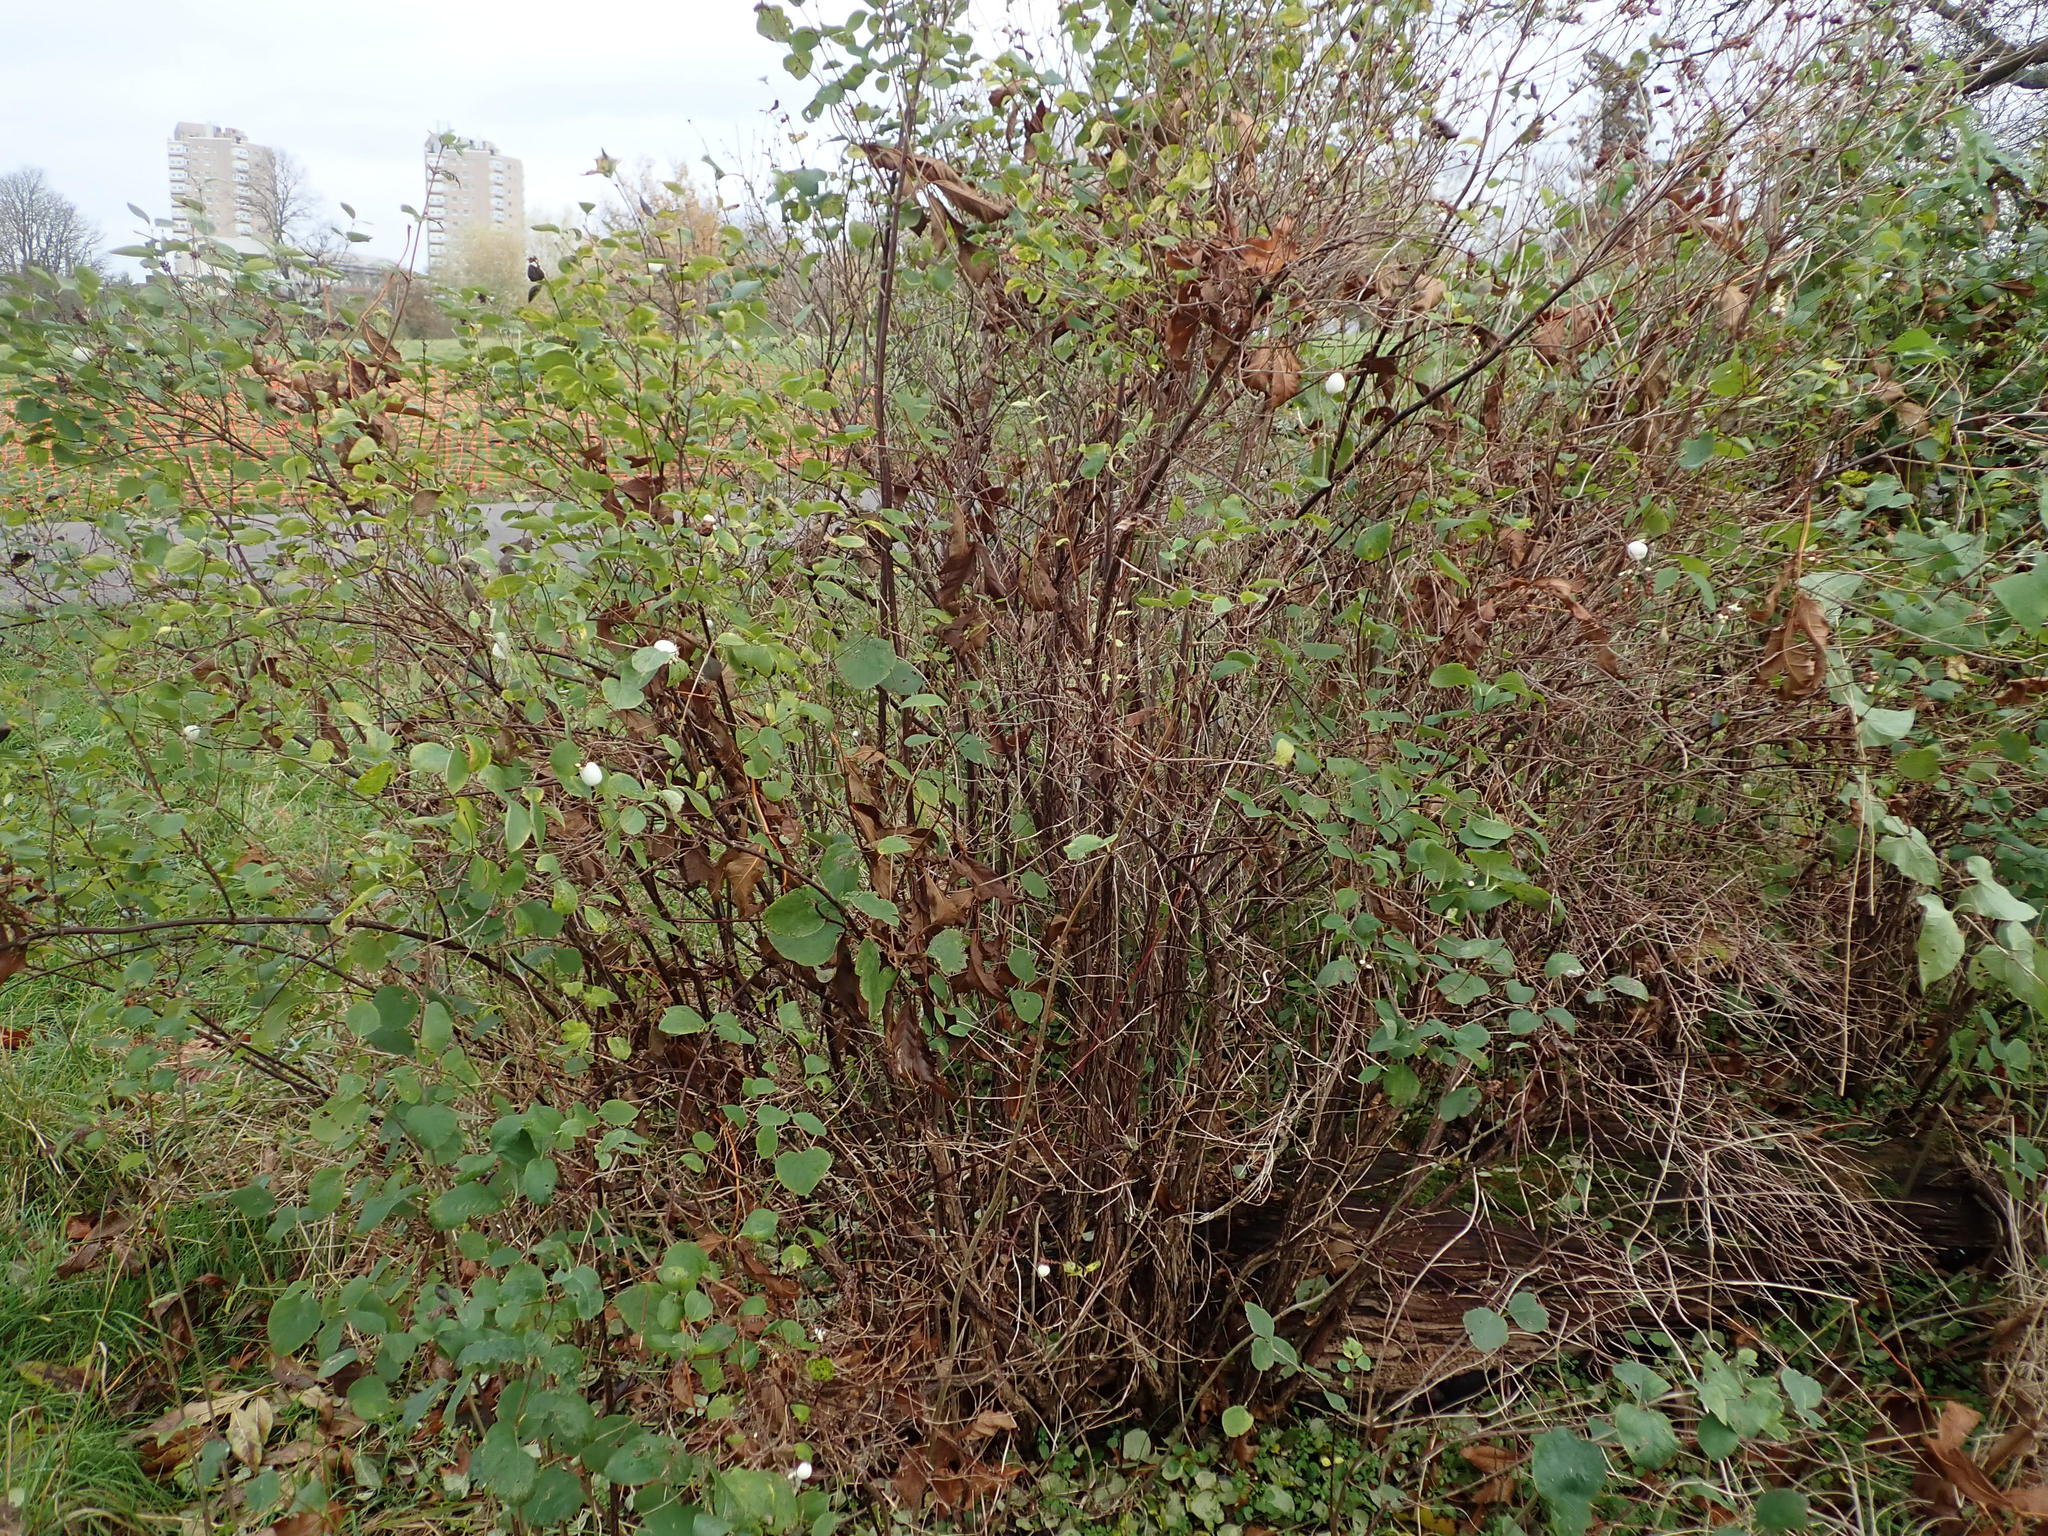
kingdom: Plantae
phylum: Tracheophyta
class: Magnoliopsida
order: Dipsacales
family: Caprifoliaceae
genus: Symphoricarpos
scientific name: Symphoricarpos albus
